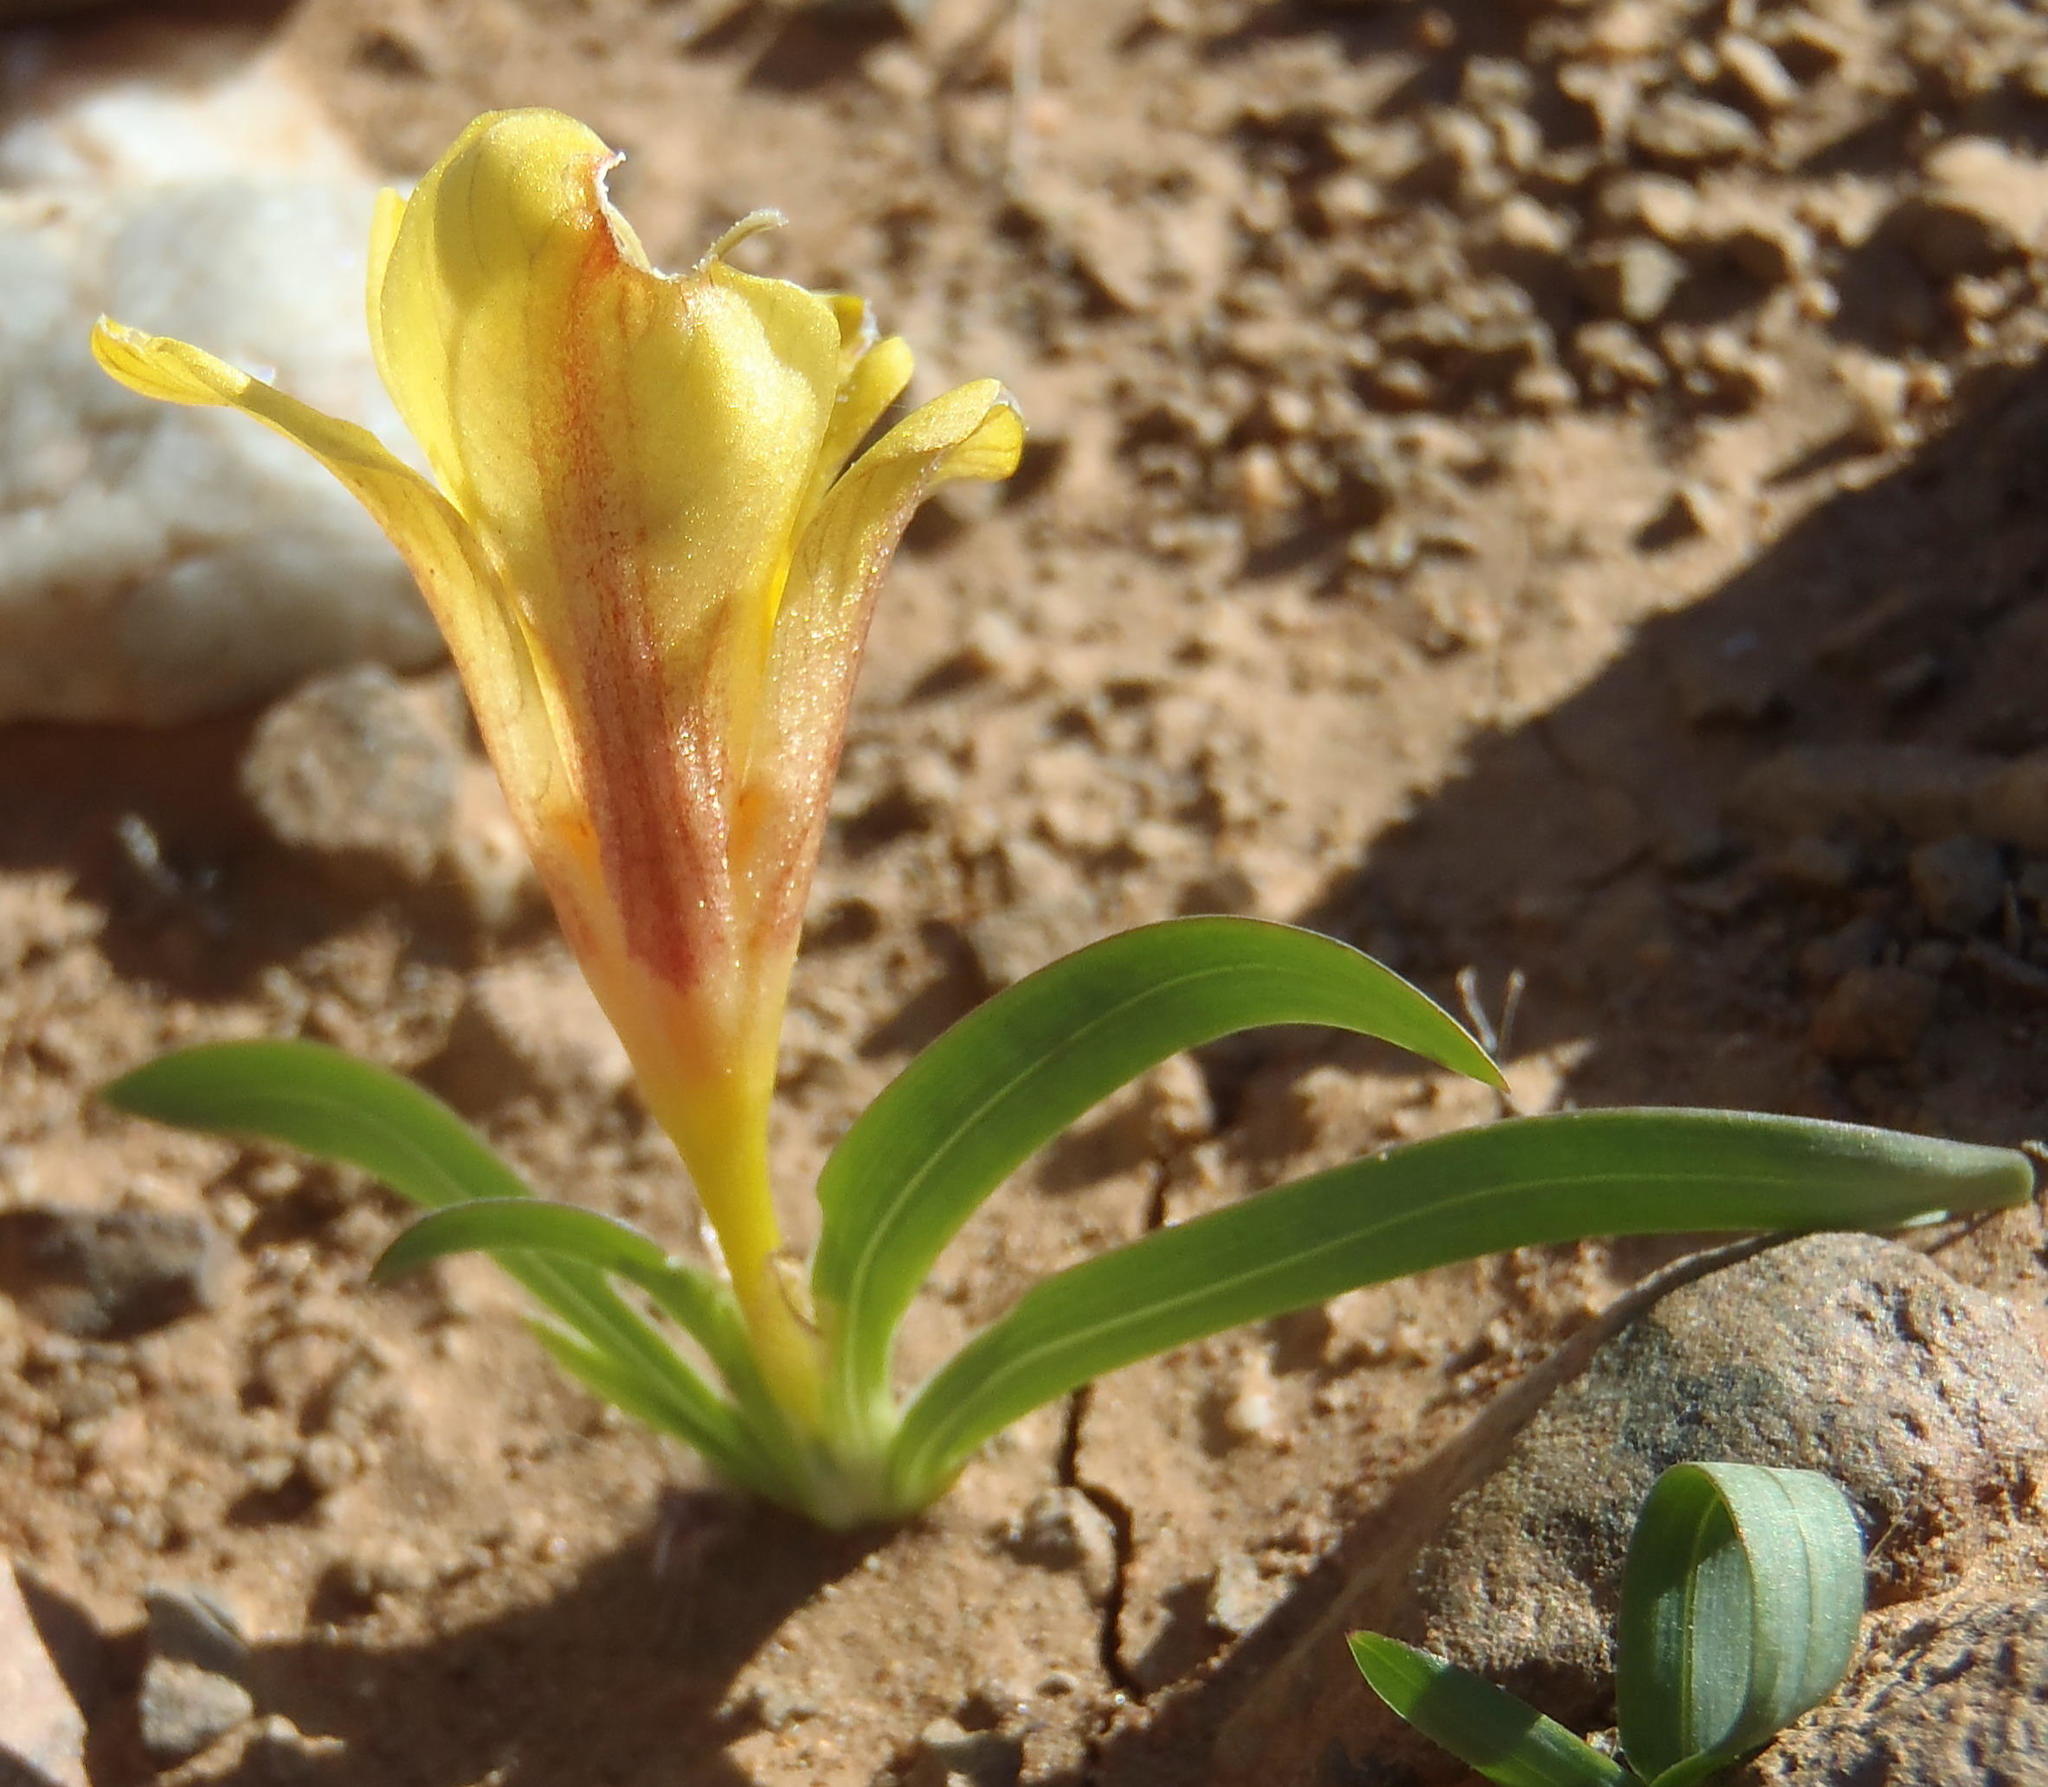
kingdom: Plantae
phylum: Tracheophyta
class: Liliopsida
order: Asparagales
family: Iridaceae
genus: Tritonia
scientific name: Tritonia florentiae
